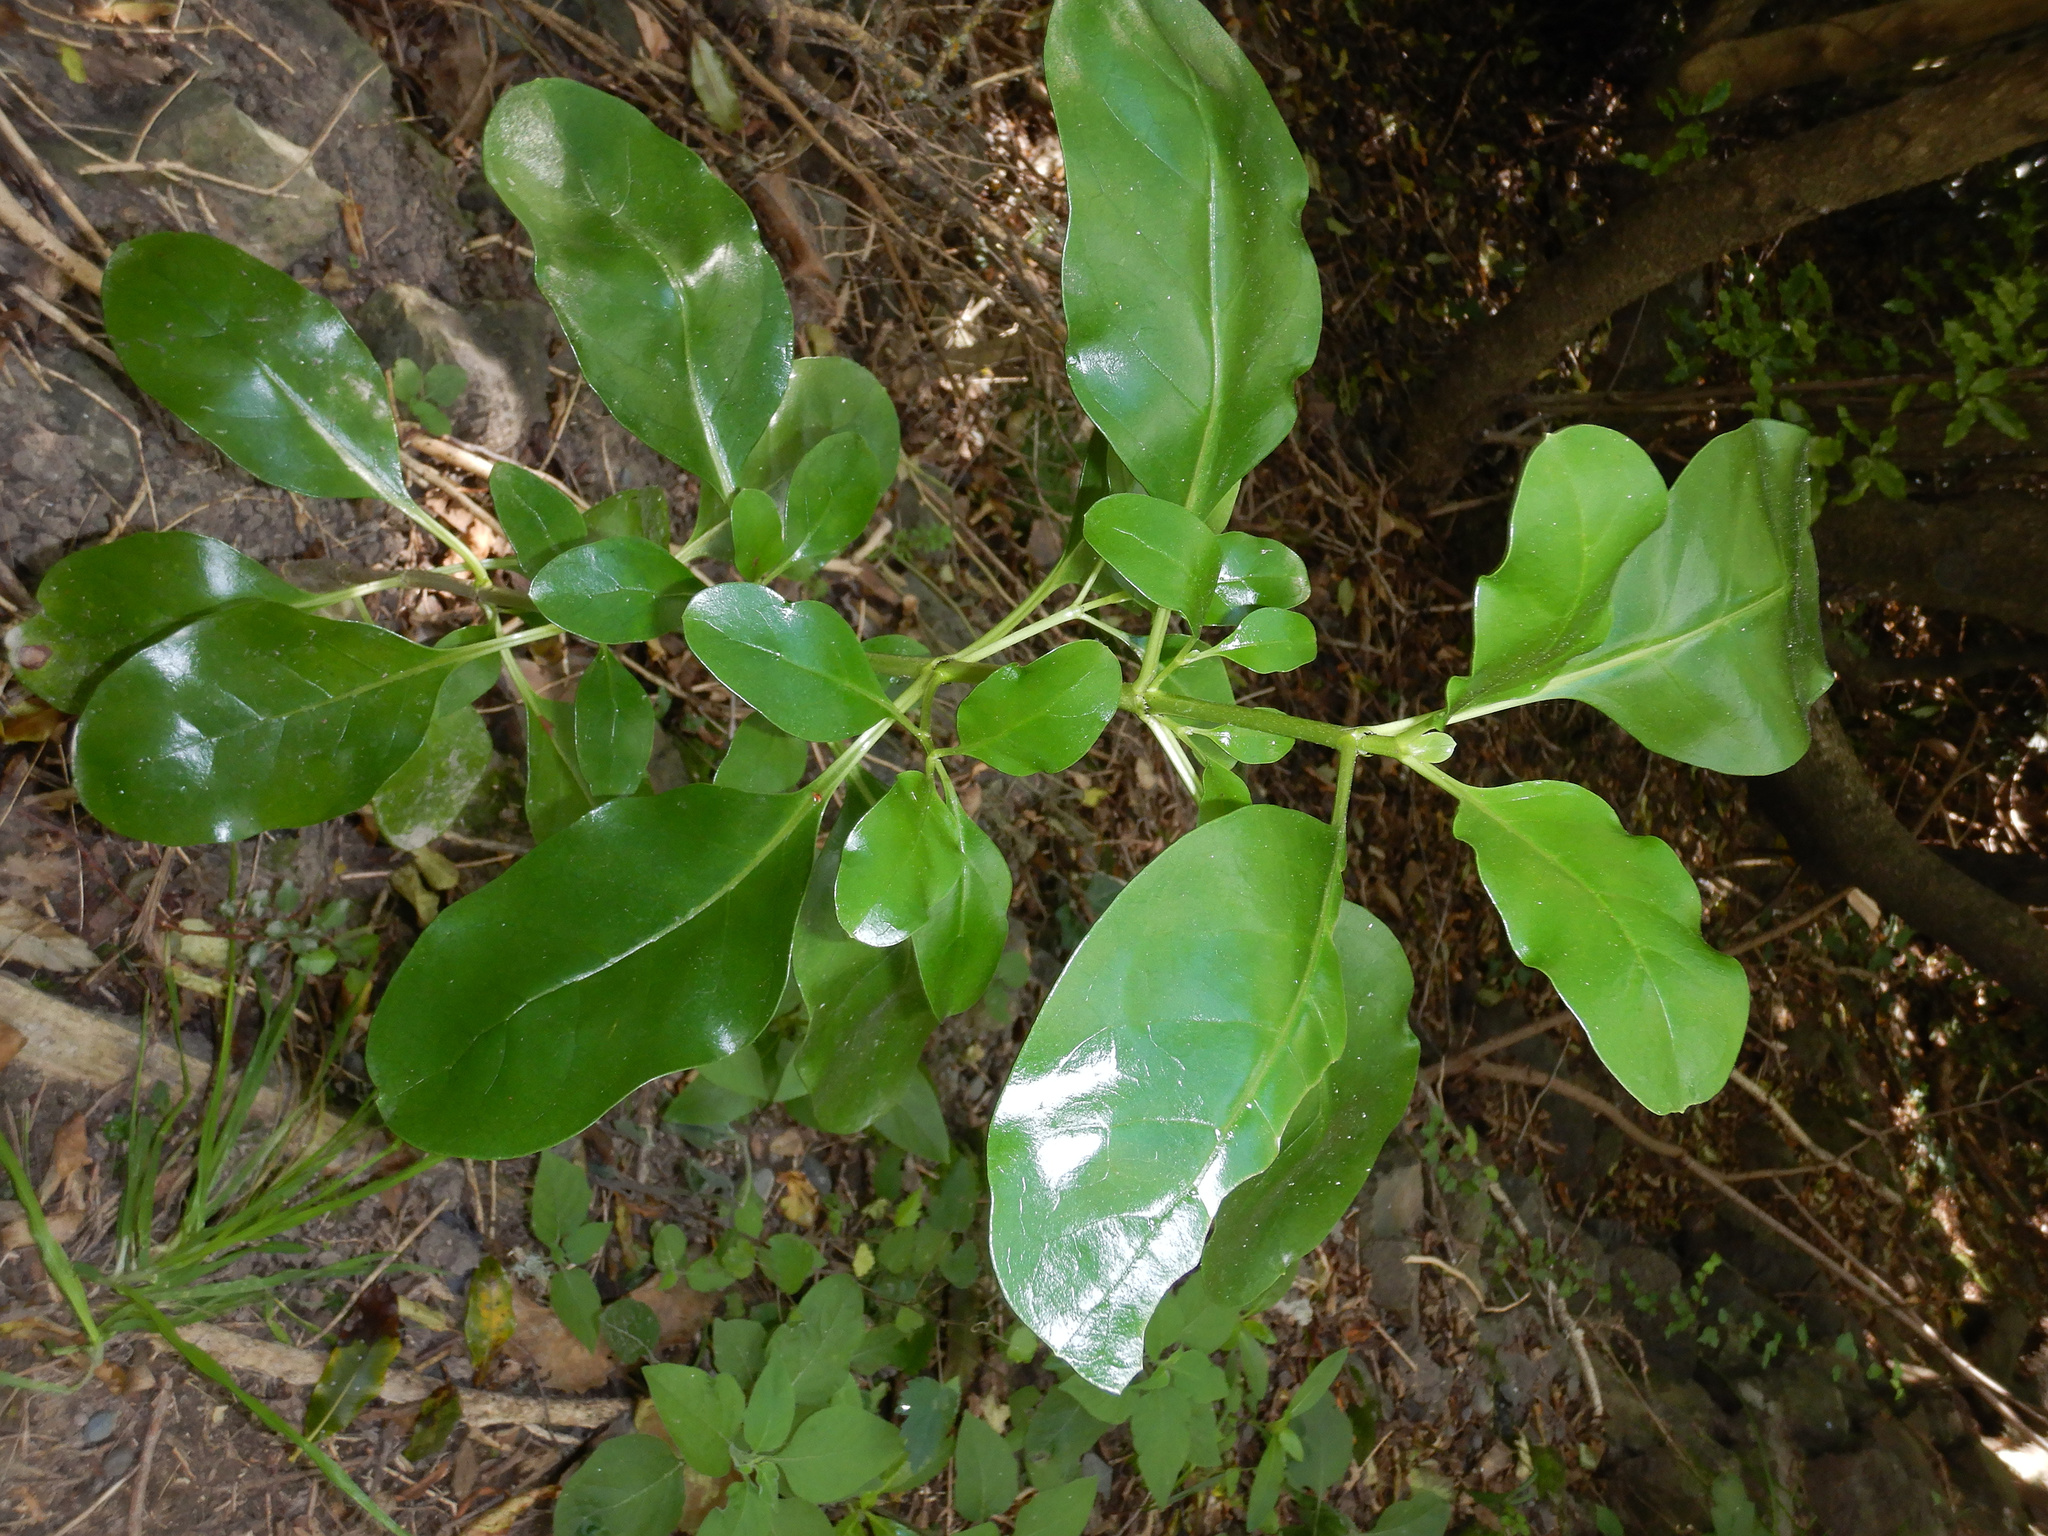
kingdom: Plantae
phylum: Tracheophyta
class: Magnoliopsida
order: Gentianales
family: Rubiaceae
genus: Coprosma
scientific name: Coprosma repens
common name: Tree bedstraw
